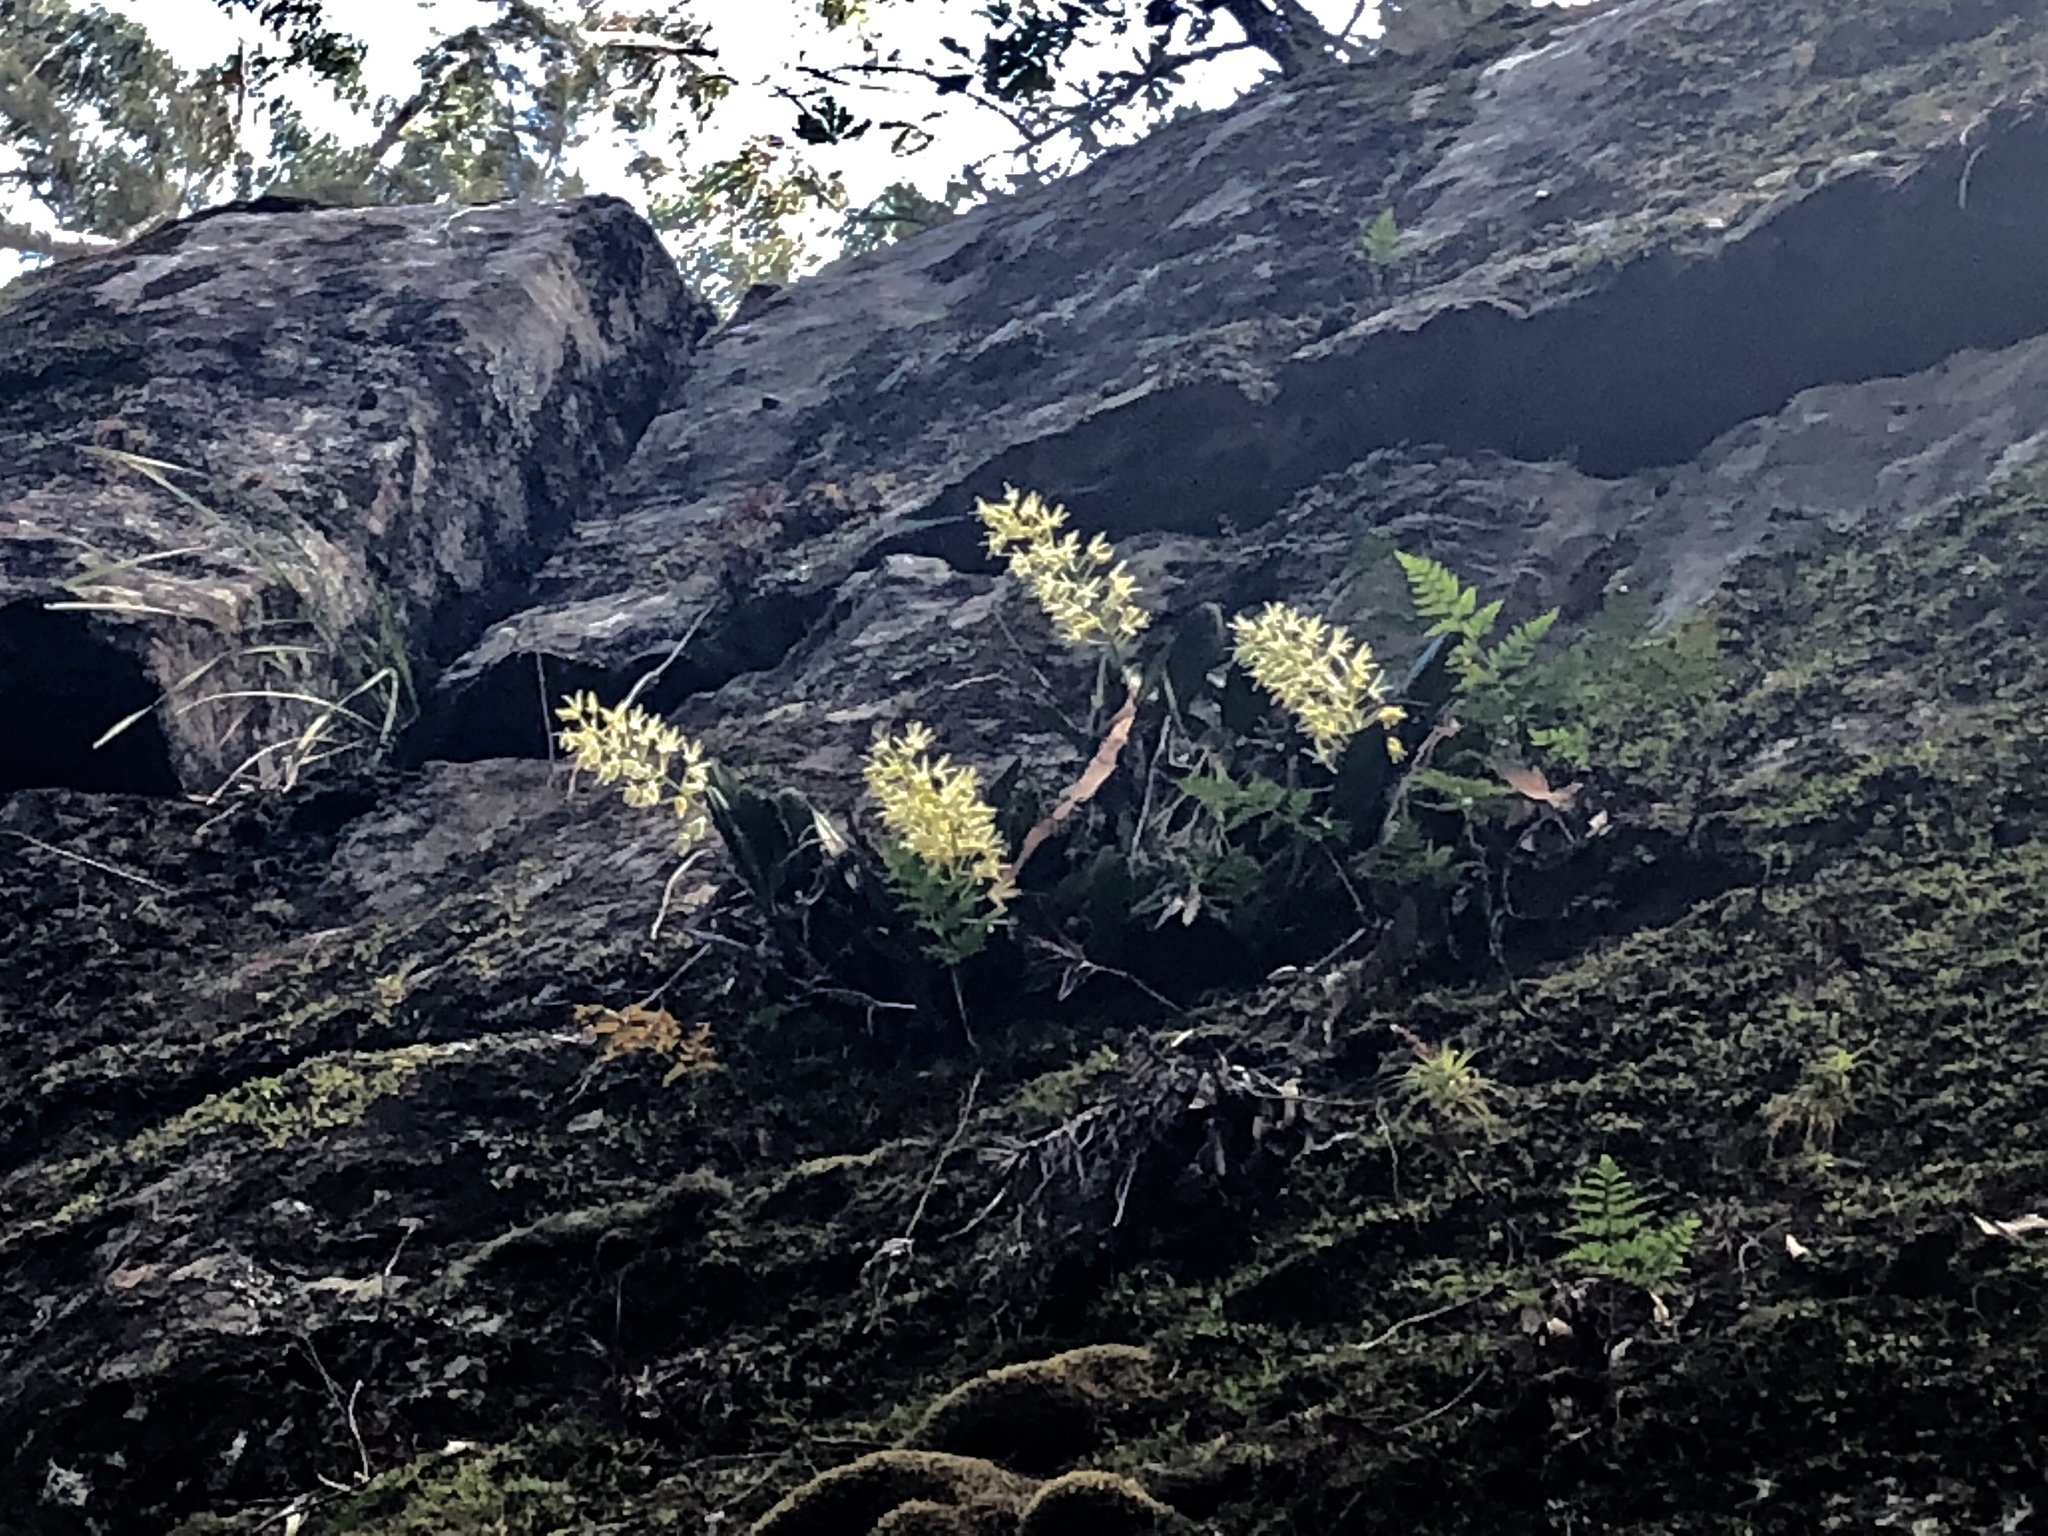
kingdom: Plantae
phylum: Tracheophyta
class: Liliopsida
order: Asparagales
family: Orchidaceae
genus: Dendrobium
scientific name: Dendrobium speciosum
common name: Rock-lily
